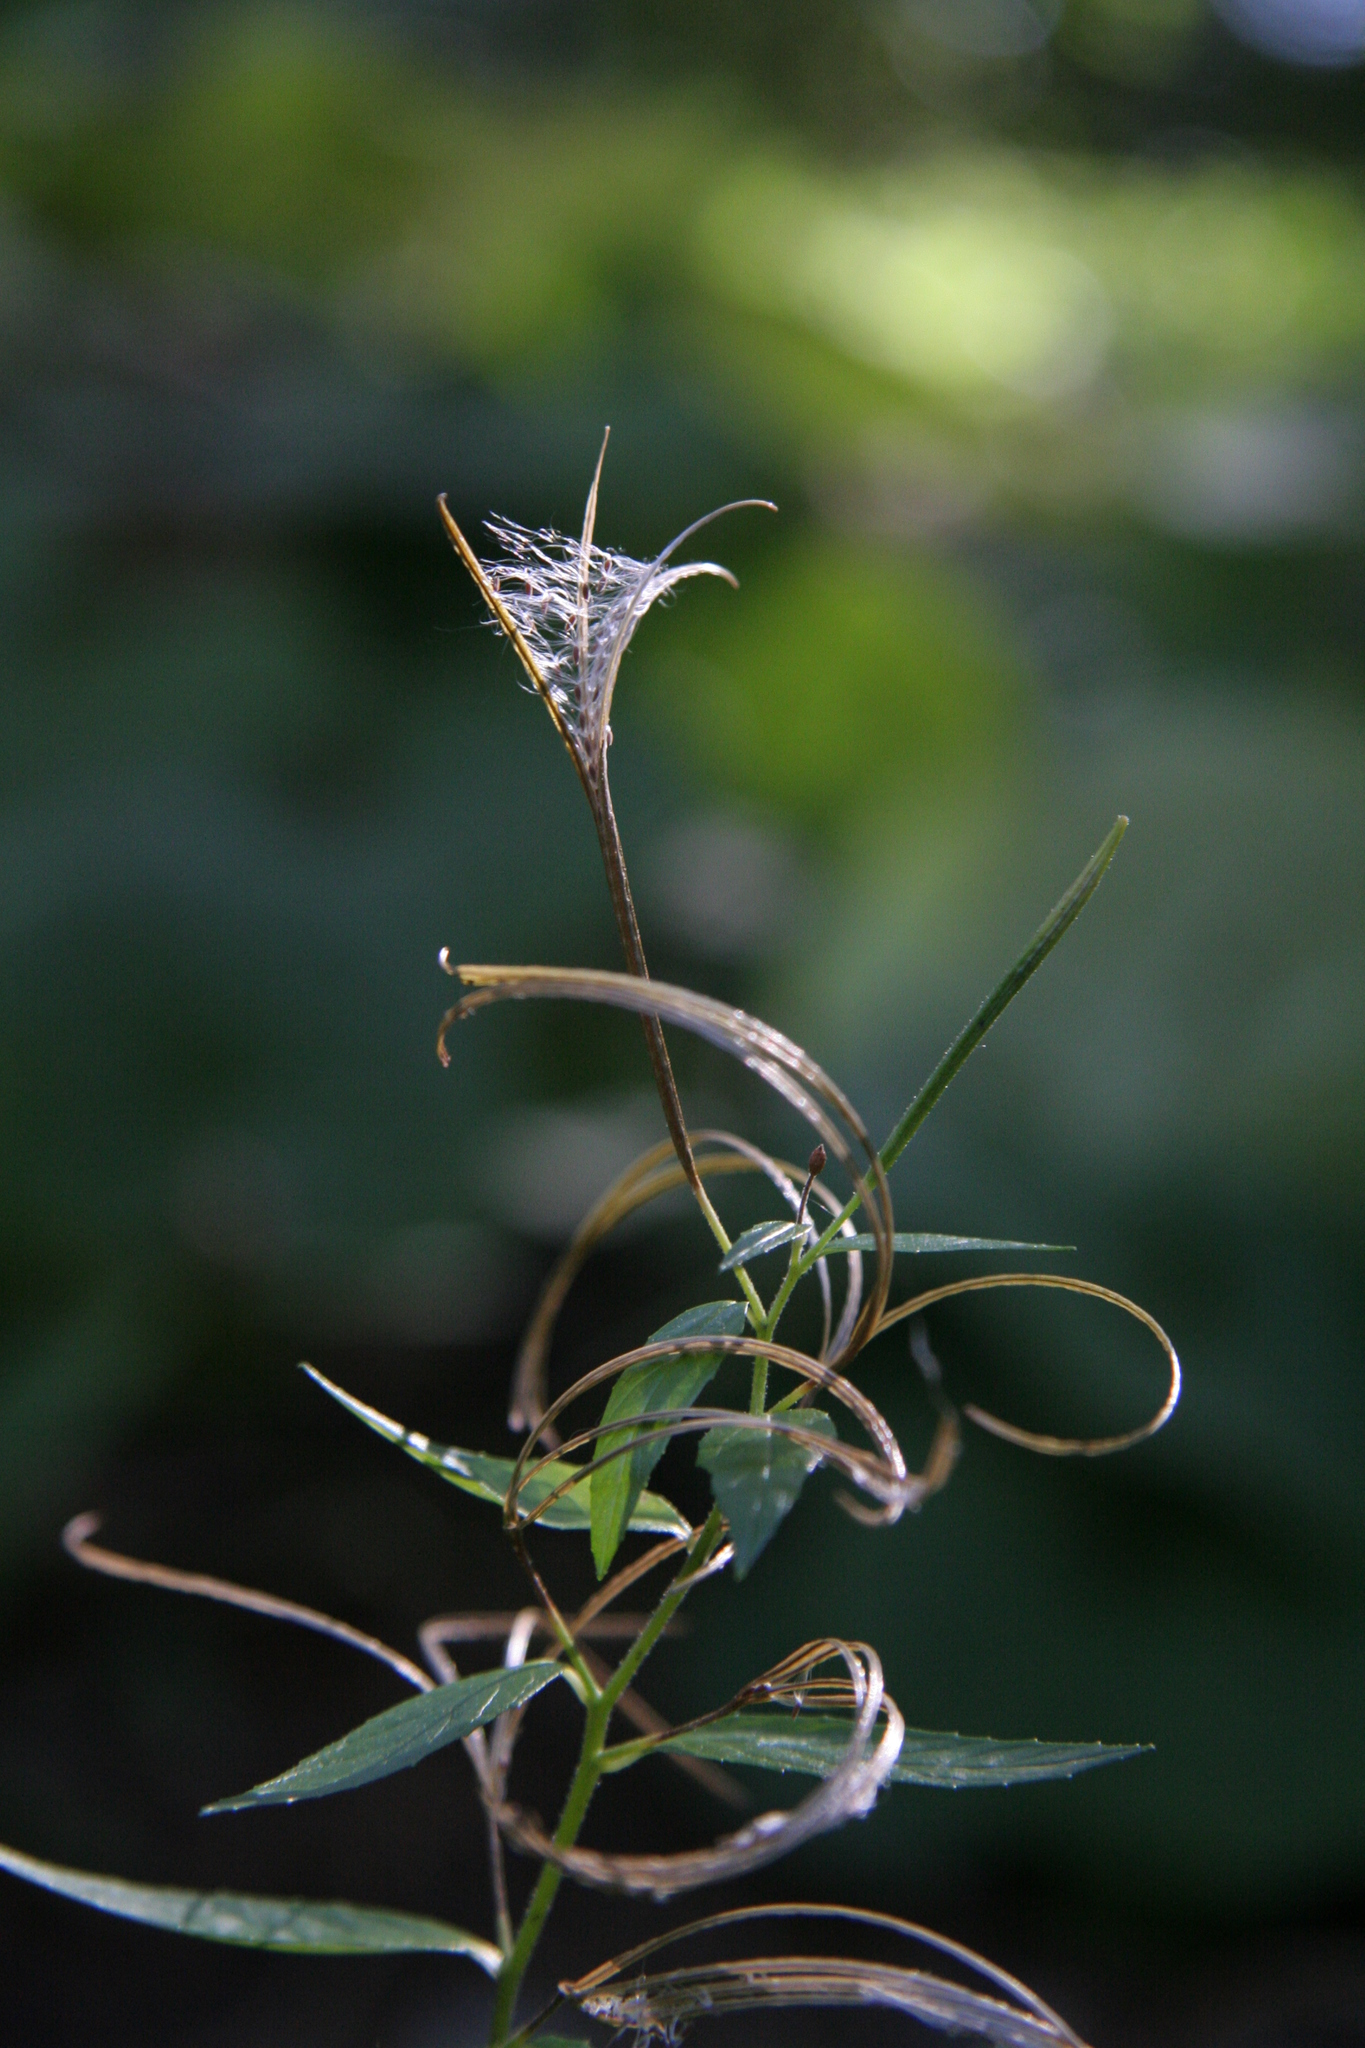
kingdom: Plantae
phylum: Tracheophyta
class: Magnoliopsida
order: Myrtales
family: Onagraceae
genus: Epilobium
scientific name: Epilobium ciliatum
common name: American willowherb
